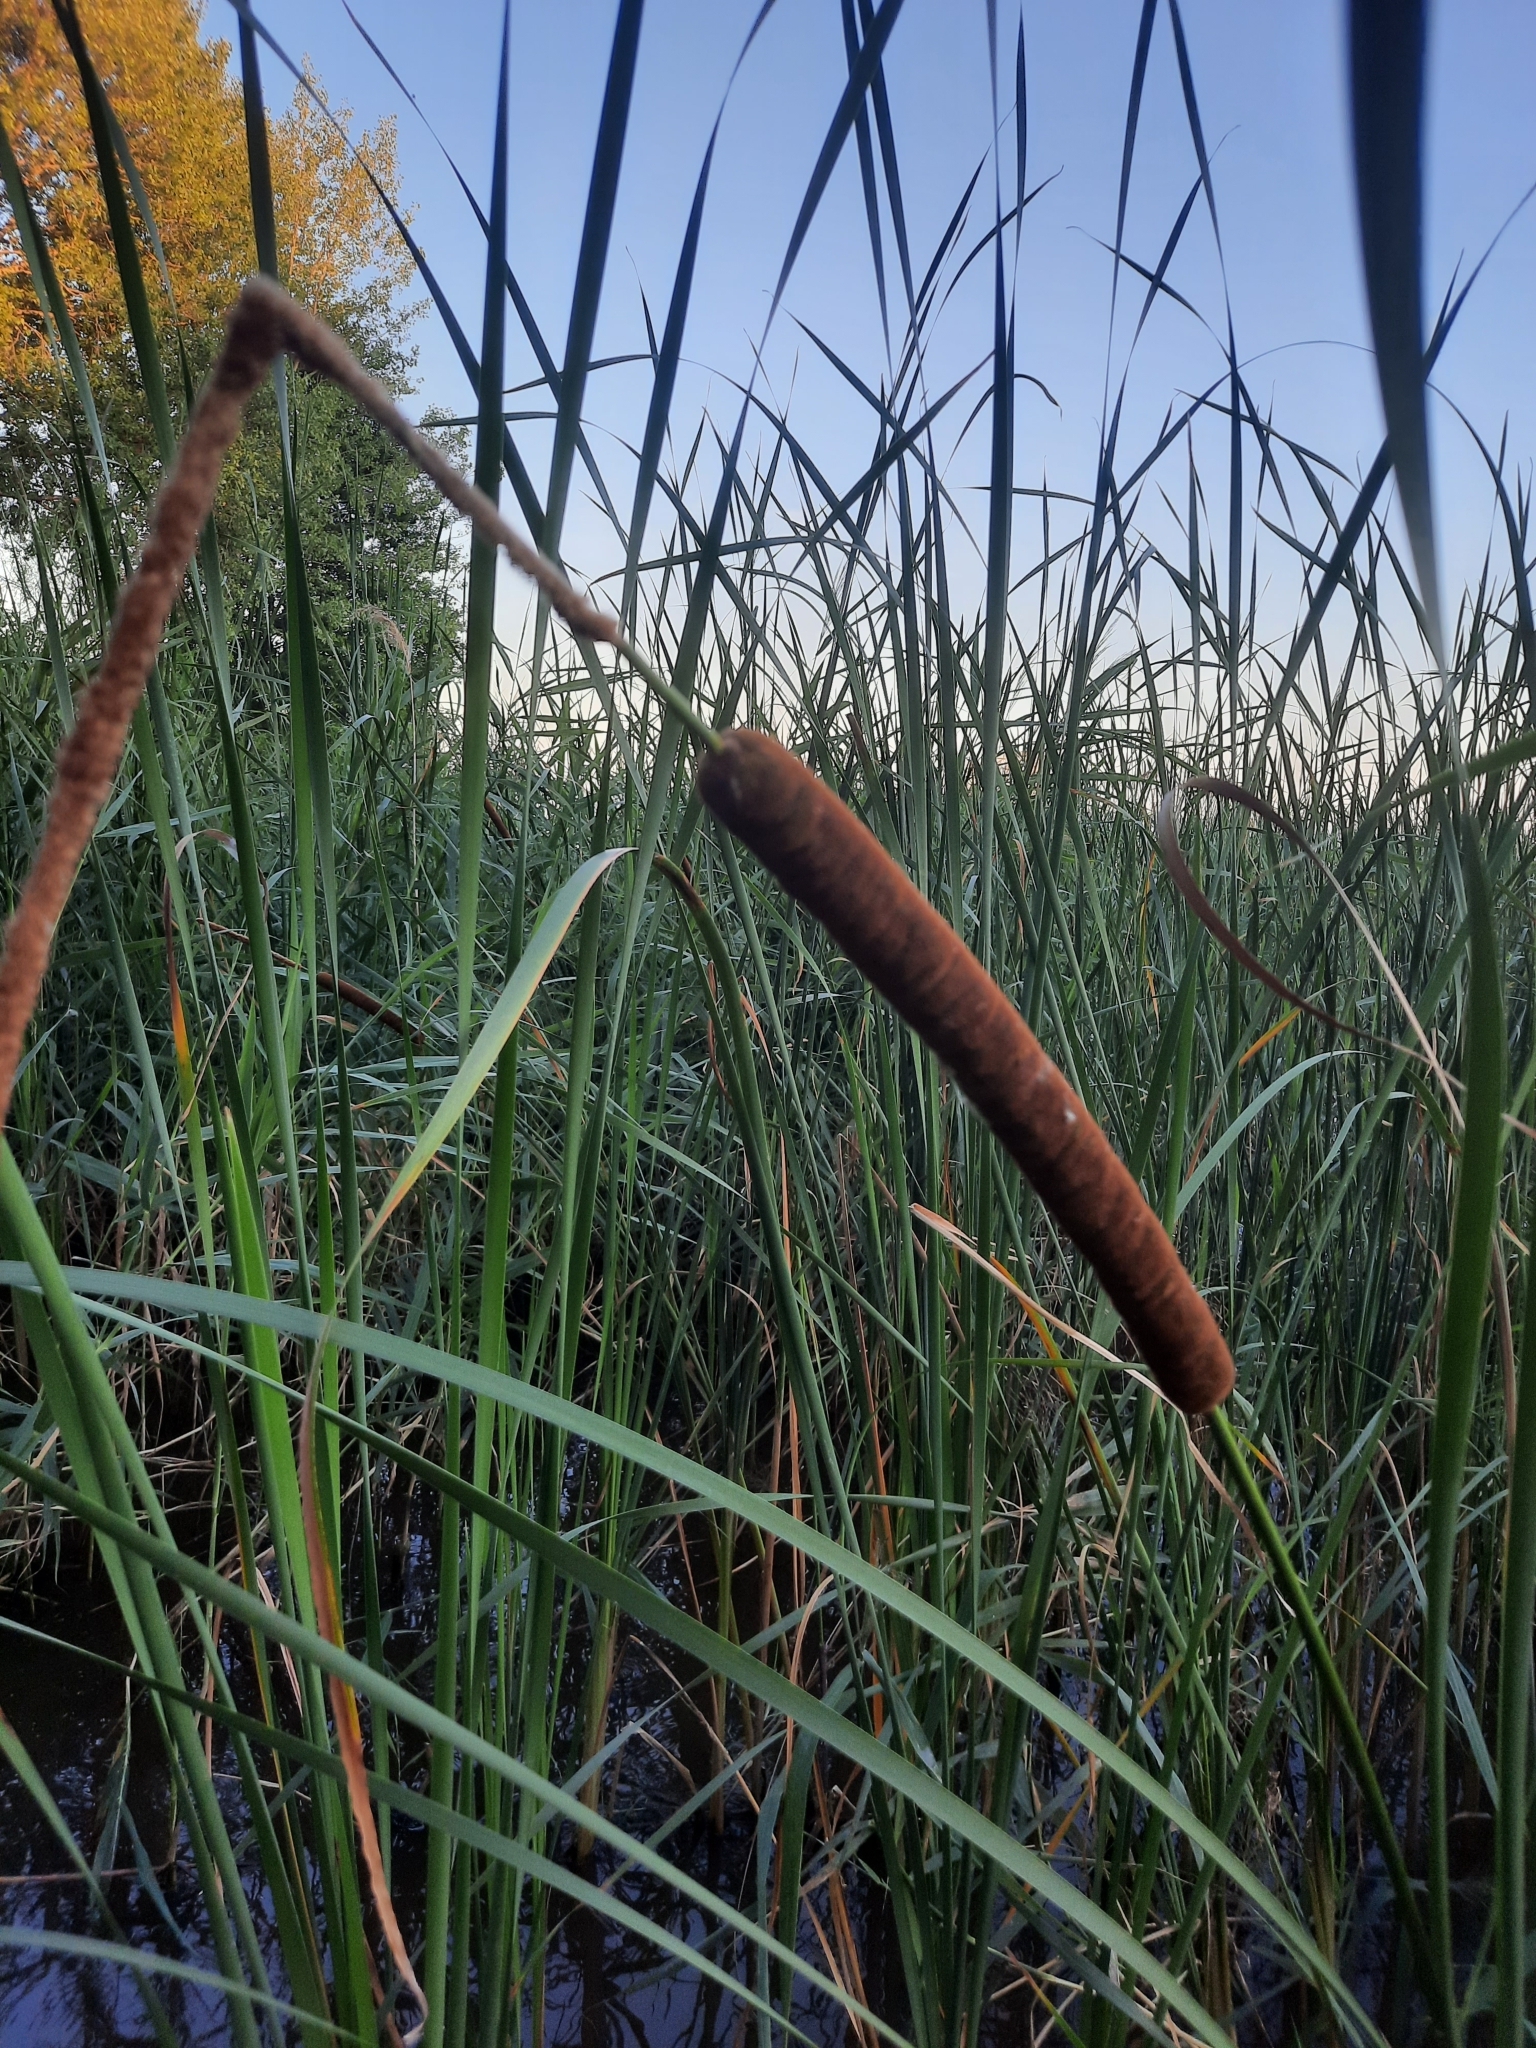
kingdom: Plantae
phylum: Tracheophyta
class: Liliopsida
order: Poales
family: Typhaceae
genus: Typha
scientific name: Typha angustifolia
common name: Lesser bulrush
